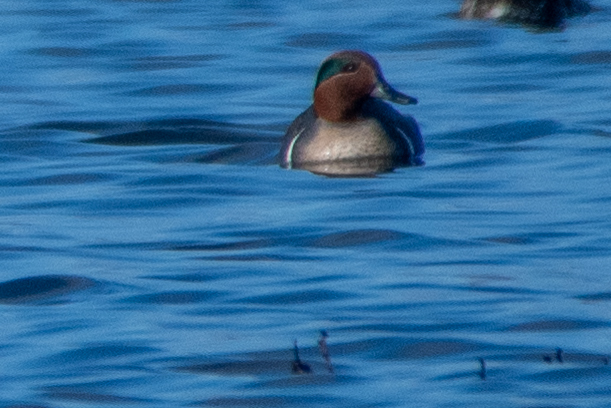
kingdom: Animalia
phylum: Chordata
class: Aves
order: Anseriformes
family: Anatidae
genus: Anas
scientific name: Anas crecca
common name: Eurasian teal
